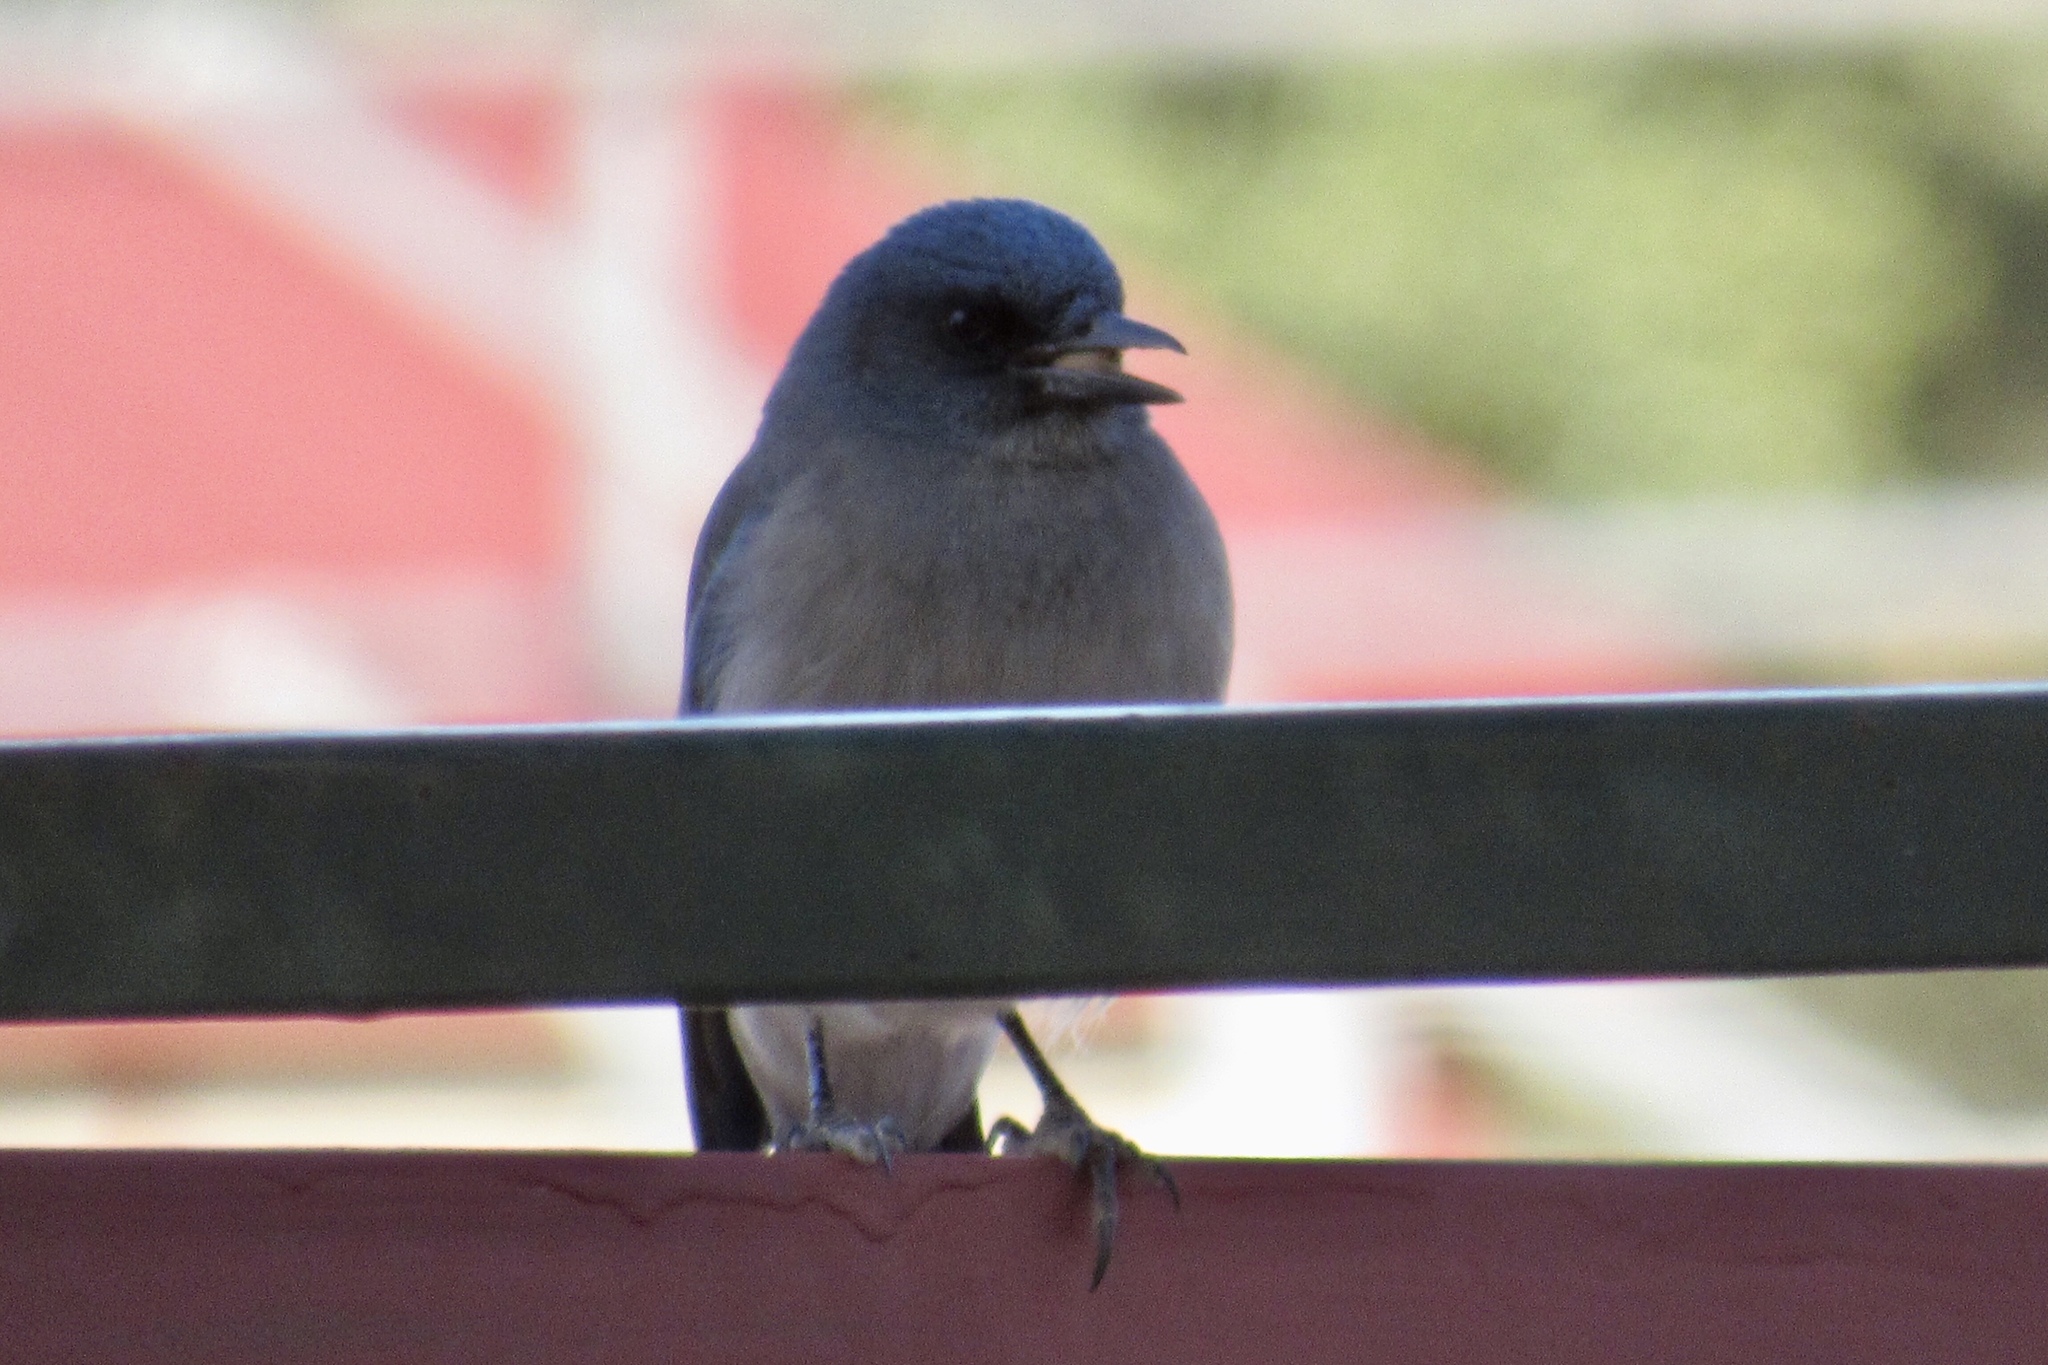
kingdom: Animalia
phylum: Chordata
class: Aves
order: Passeriformes
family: Corvidae
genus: Aphelocoma
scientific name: Aphelocoma wollweberi
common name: Mexican jay
